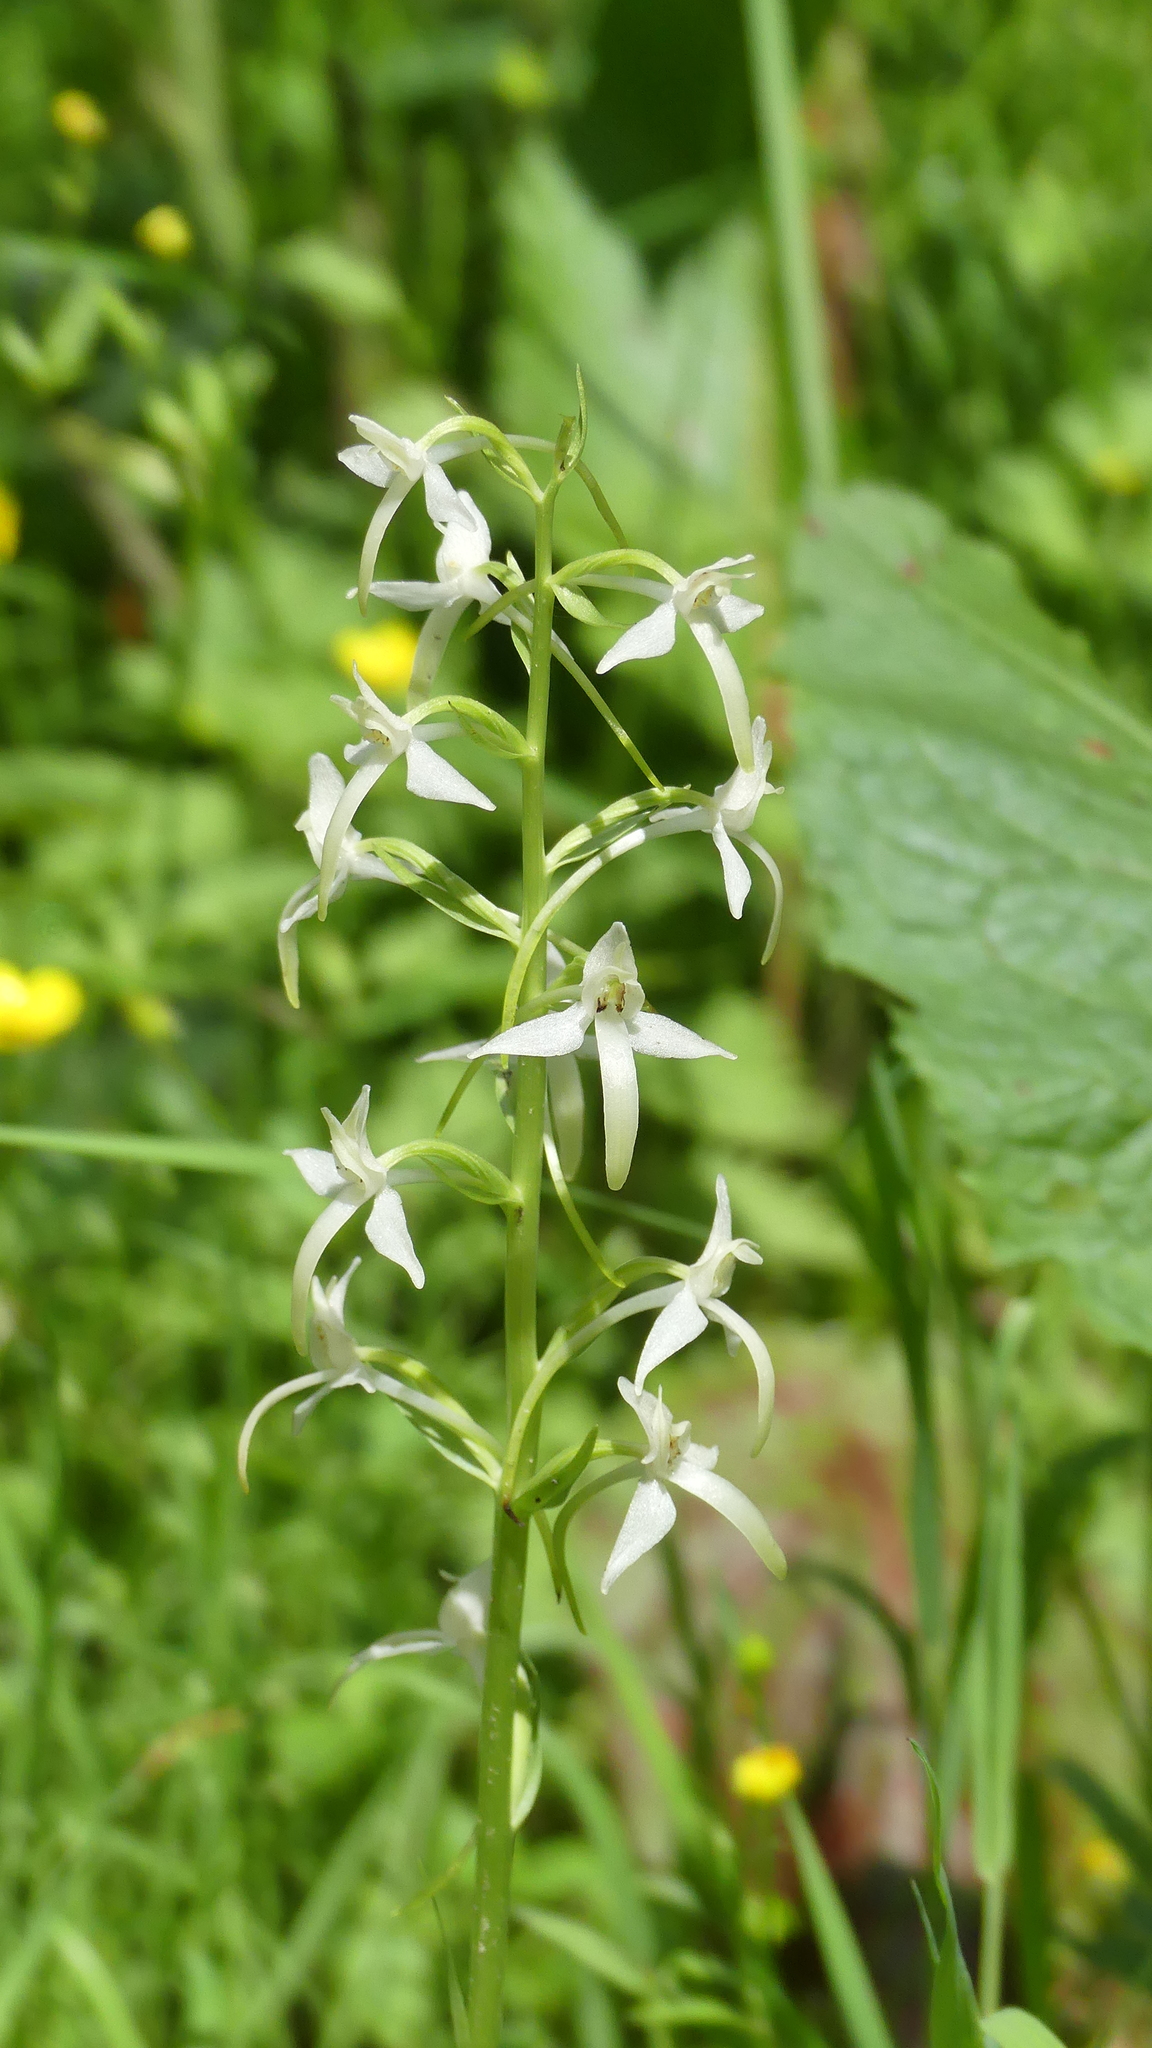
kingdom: Plantae
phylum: Tracheophyta
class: Liliopsida
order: Asparagales
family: Orchidaceae
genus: Platanthera
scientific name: Platanthera bifolia
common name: Lesser butterfly-orchid
